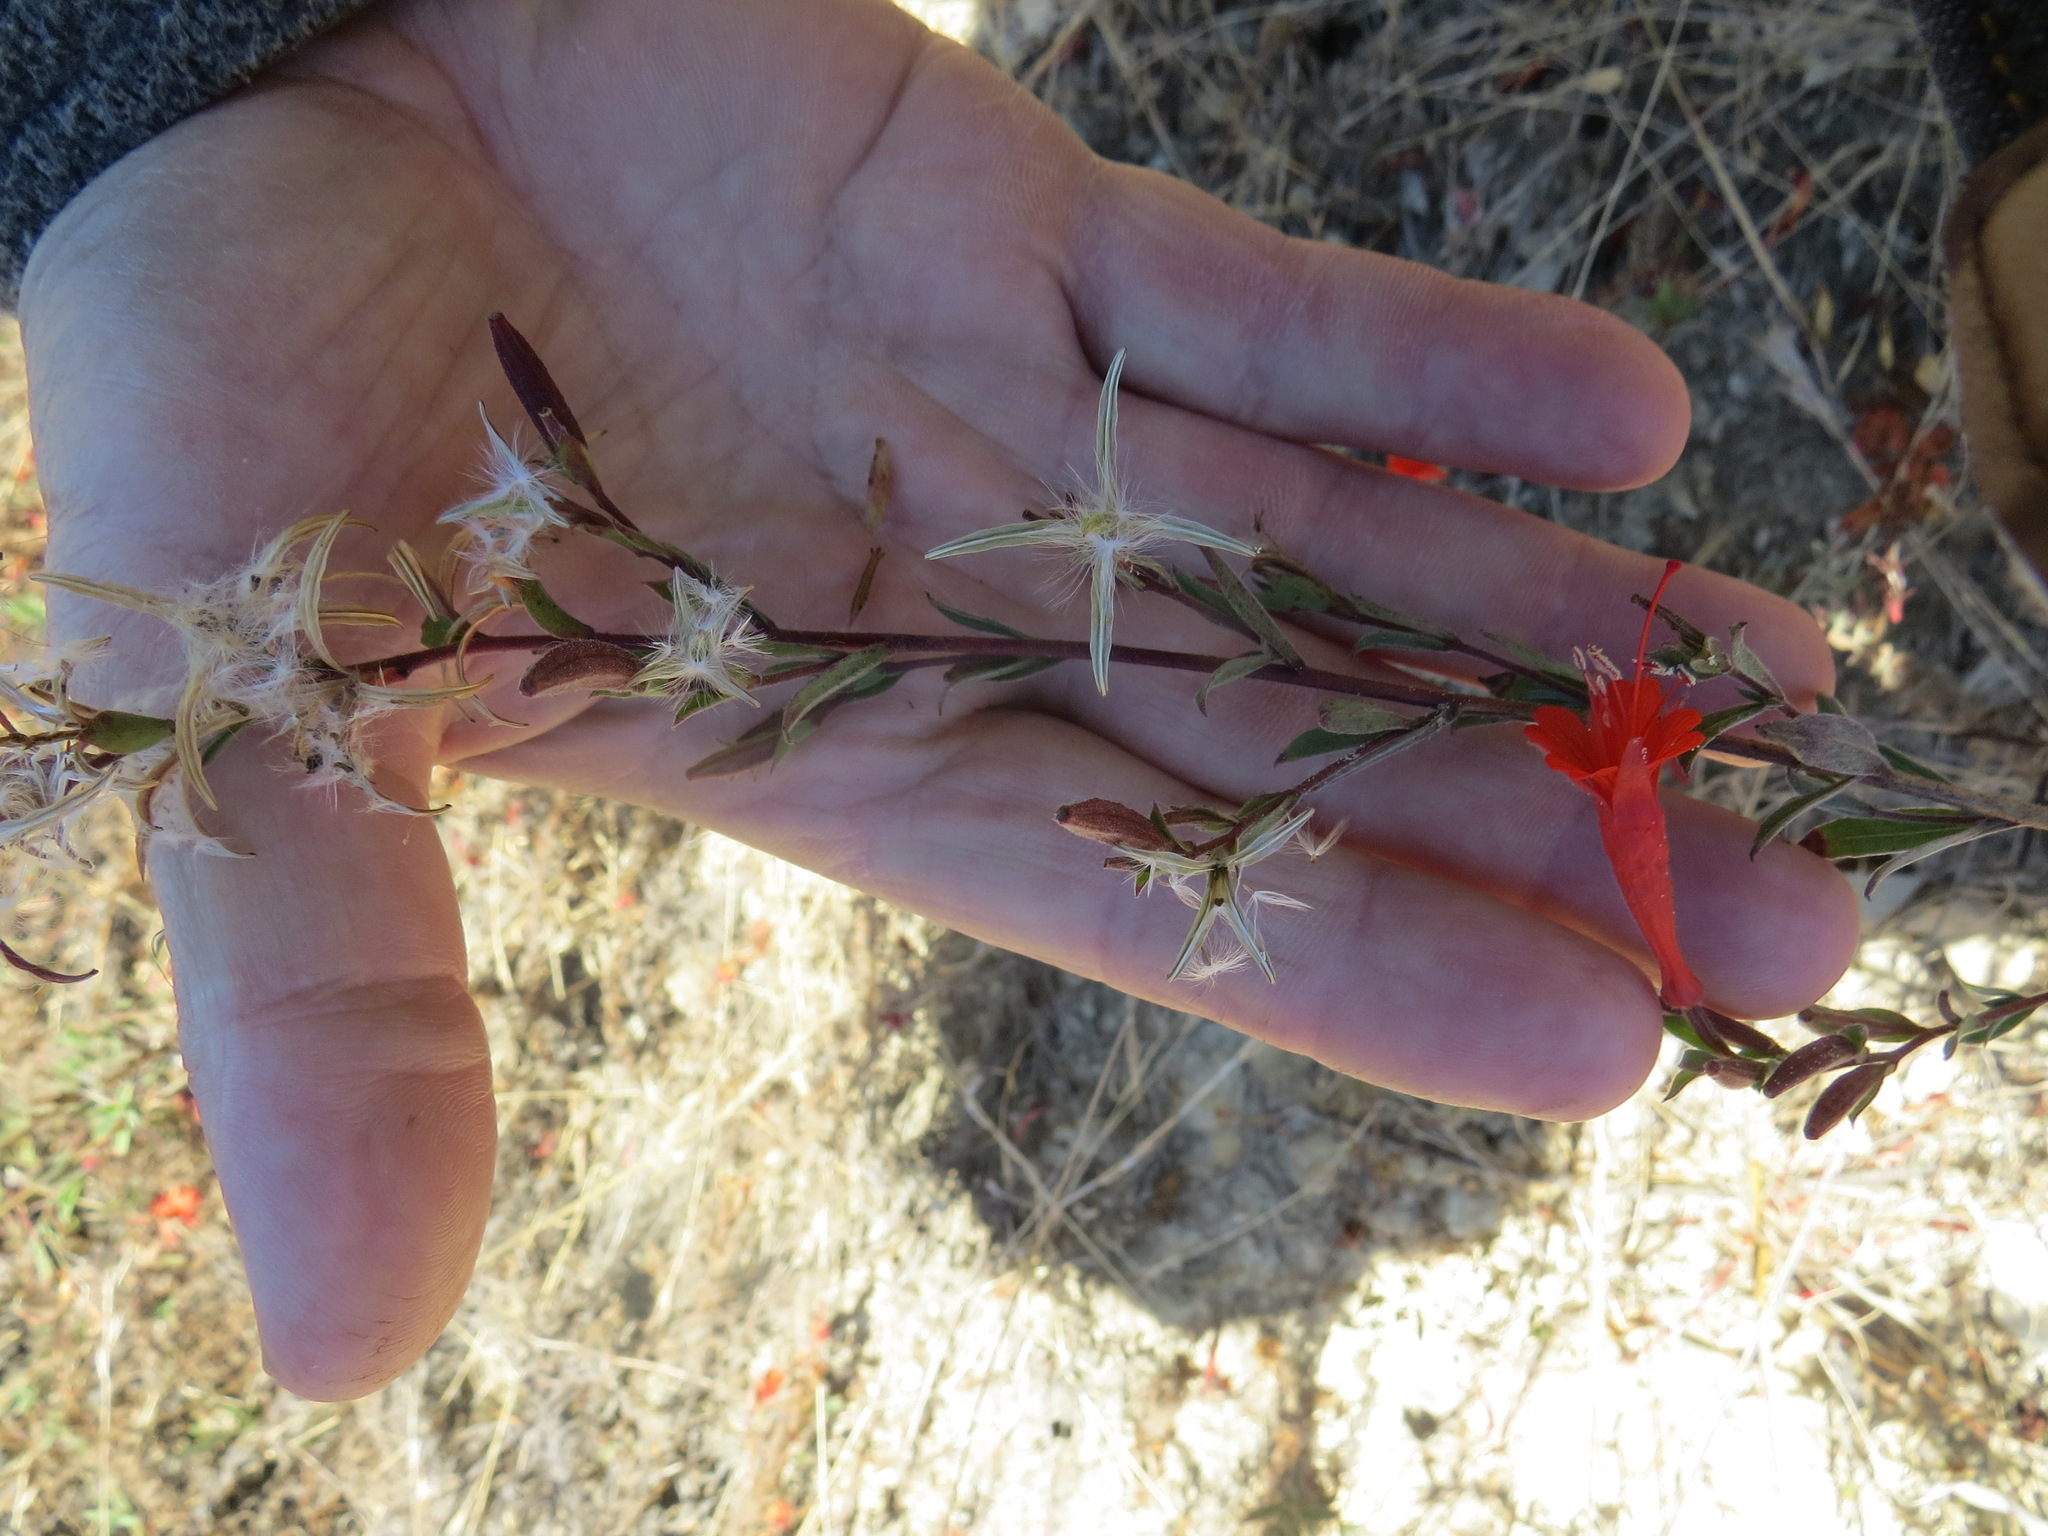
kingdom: Plantae
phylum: Tracheophyta
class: Magnoliopsida
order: Myrtales
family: Onagraceae
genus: Epilobium
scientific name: Epilobium canum
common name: California-fuchsia
